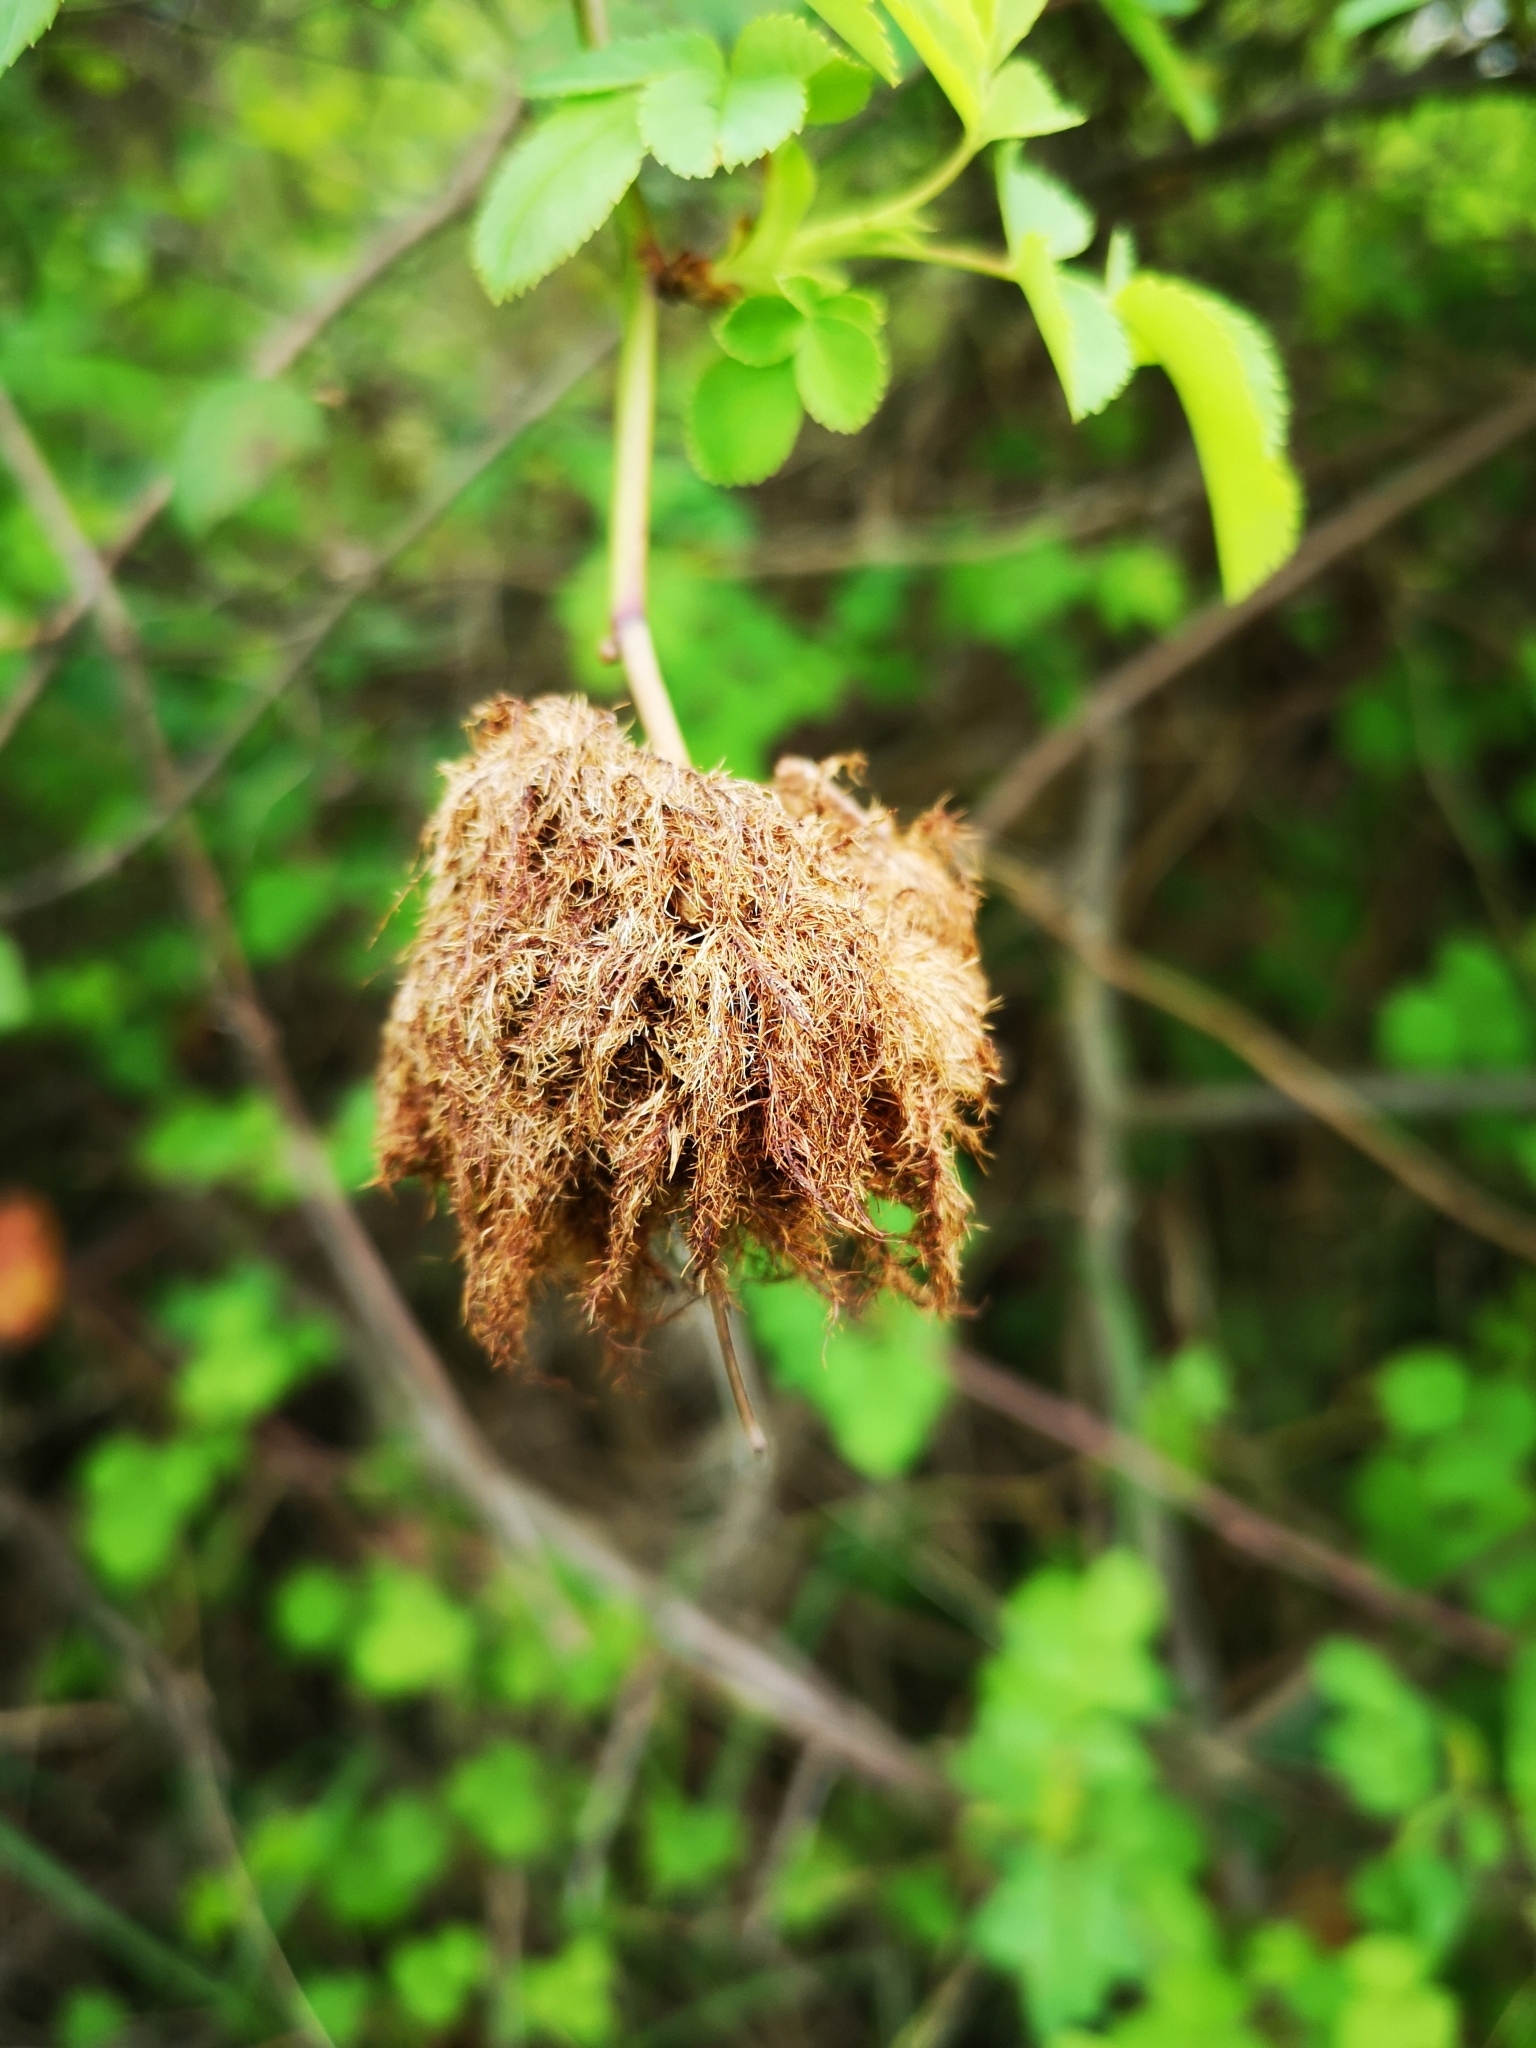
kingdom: Animalia
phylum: Arthropoda
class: Insecta
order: Hymenoptera
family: Cynipidae
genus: Diplolepis
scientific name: Diplolepis rosae
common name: Bedeguar gall
